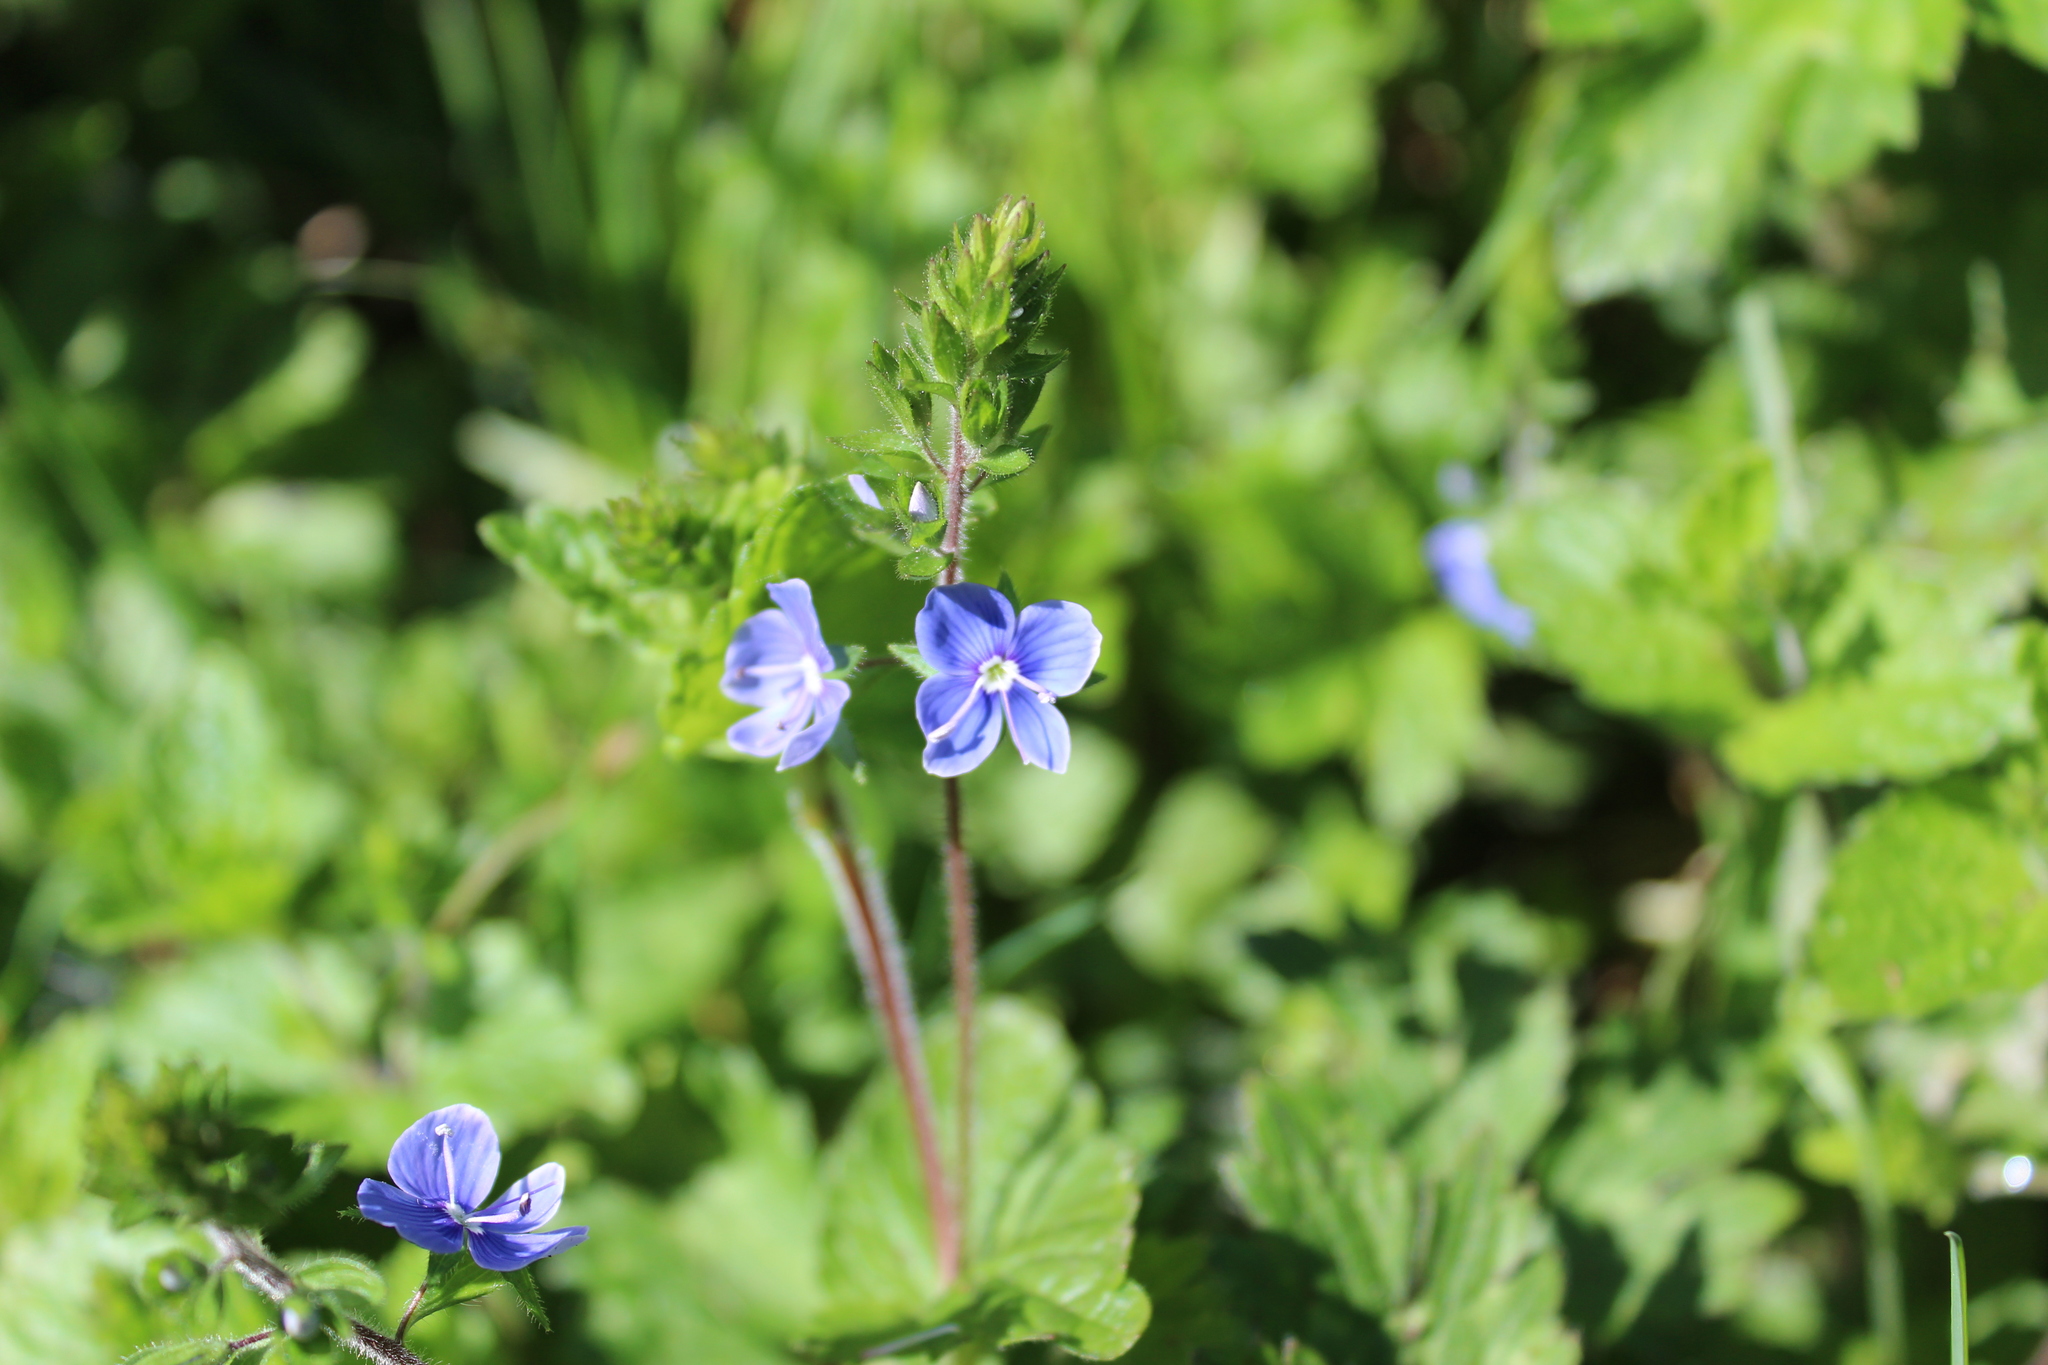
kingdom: Plantae
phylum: Tracheophyta
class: Magnoliopsida
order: Lamiales
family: Plantaginaceae
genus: Veronica
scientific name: Veronica chamaedrys
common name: Germander speedwell
